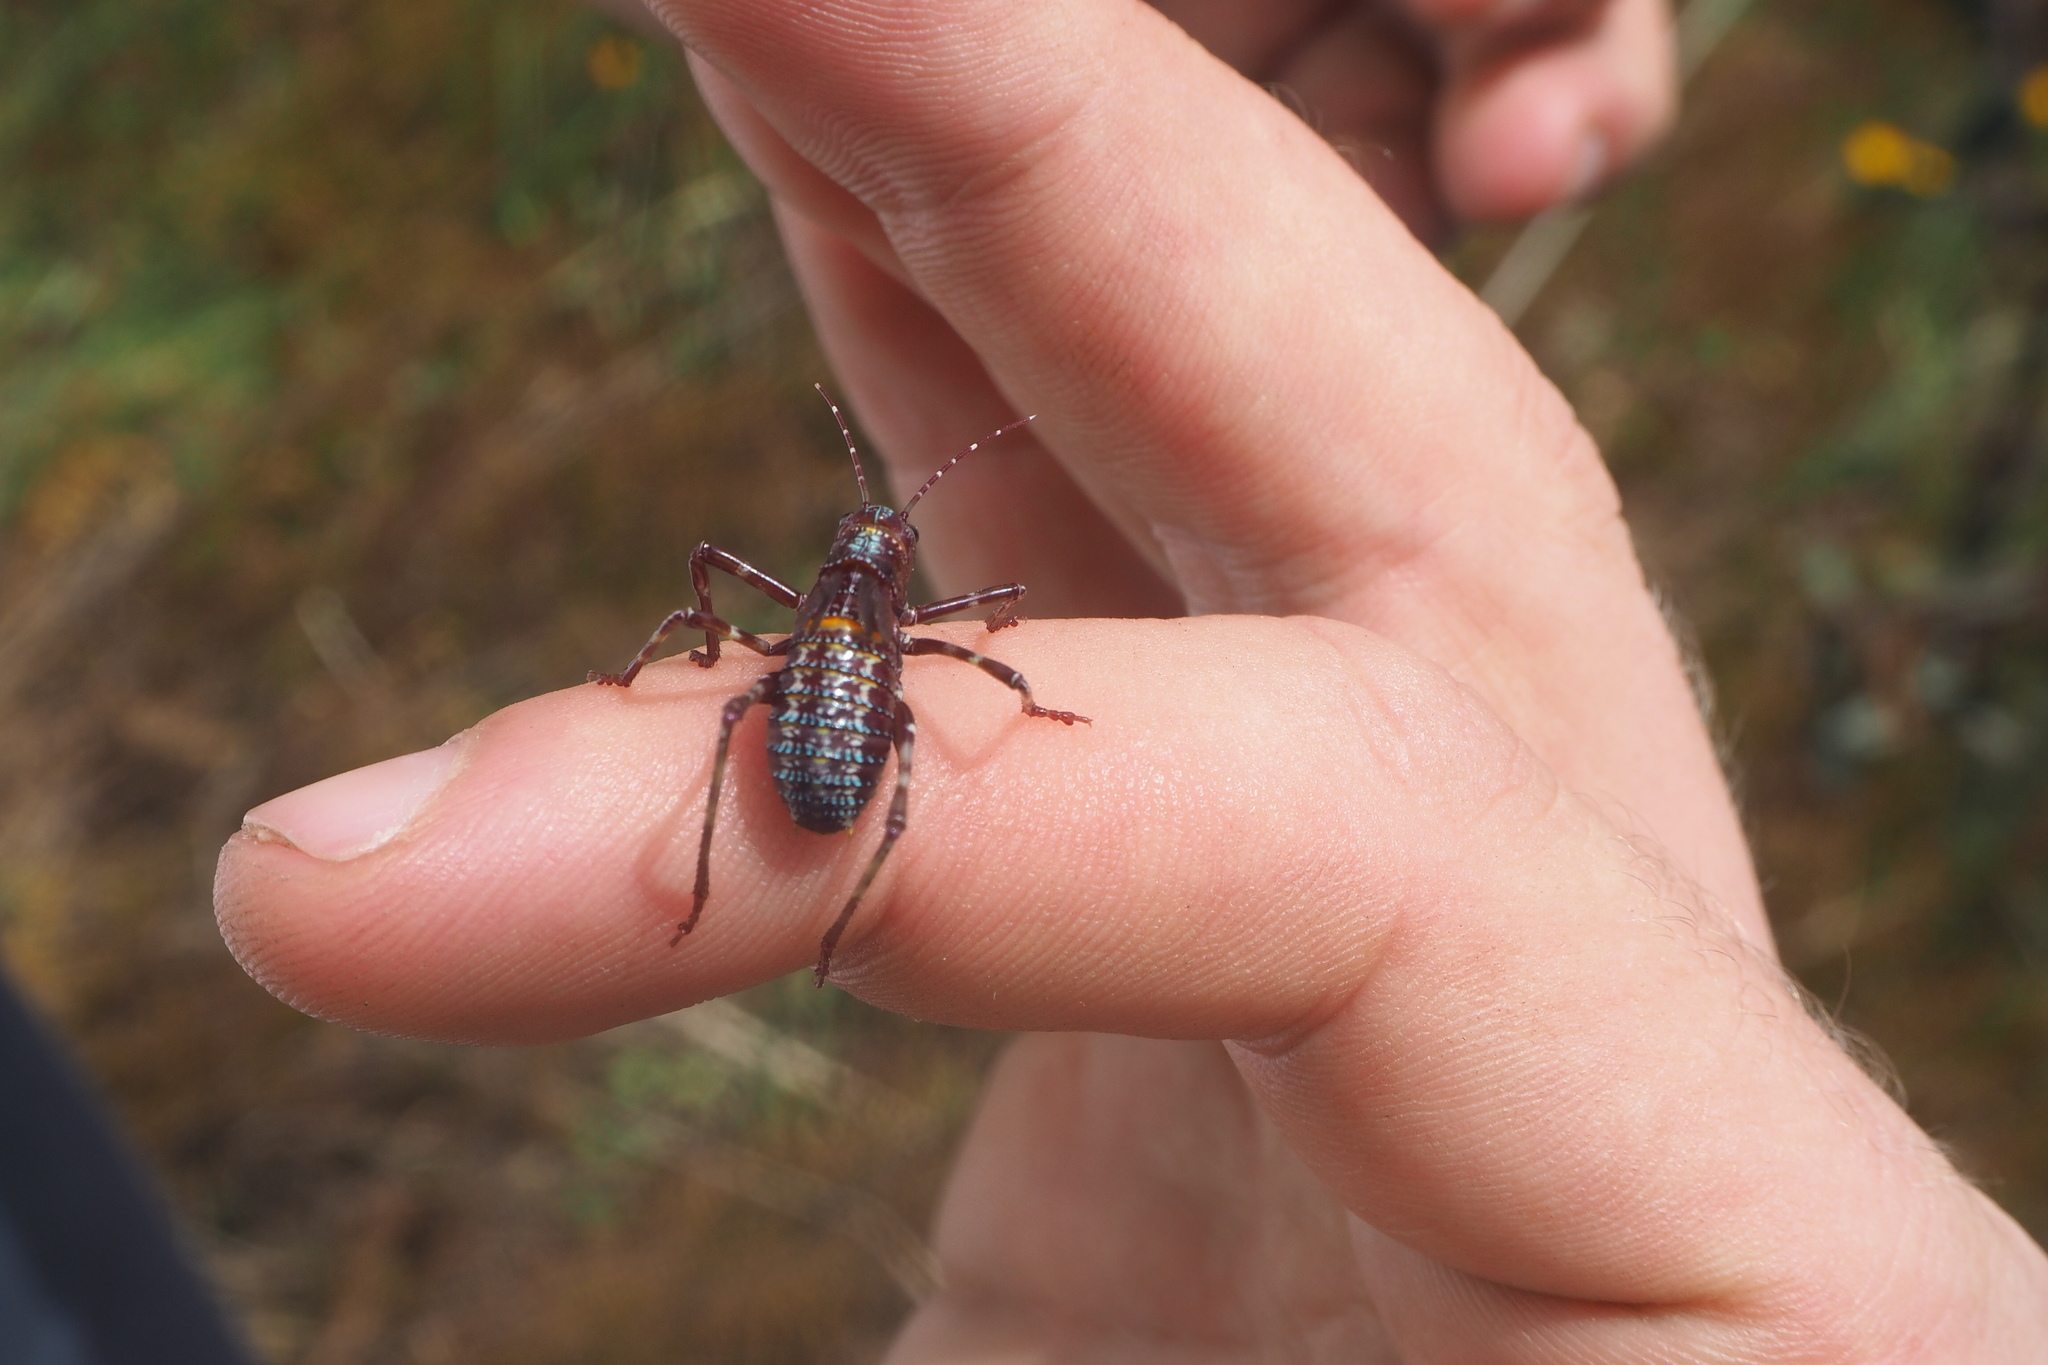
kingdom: Animalia
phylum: Arthropoda
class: Insecta
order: Orthoptera
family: Tettigoniidae
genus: Acripeza
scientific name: Acripeza reticulata
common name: Mountain katydid
